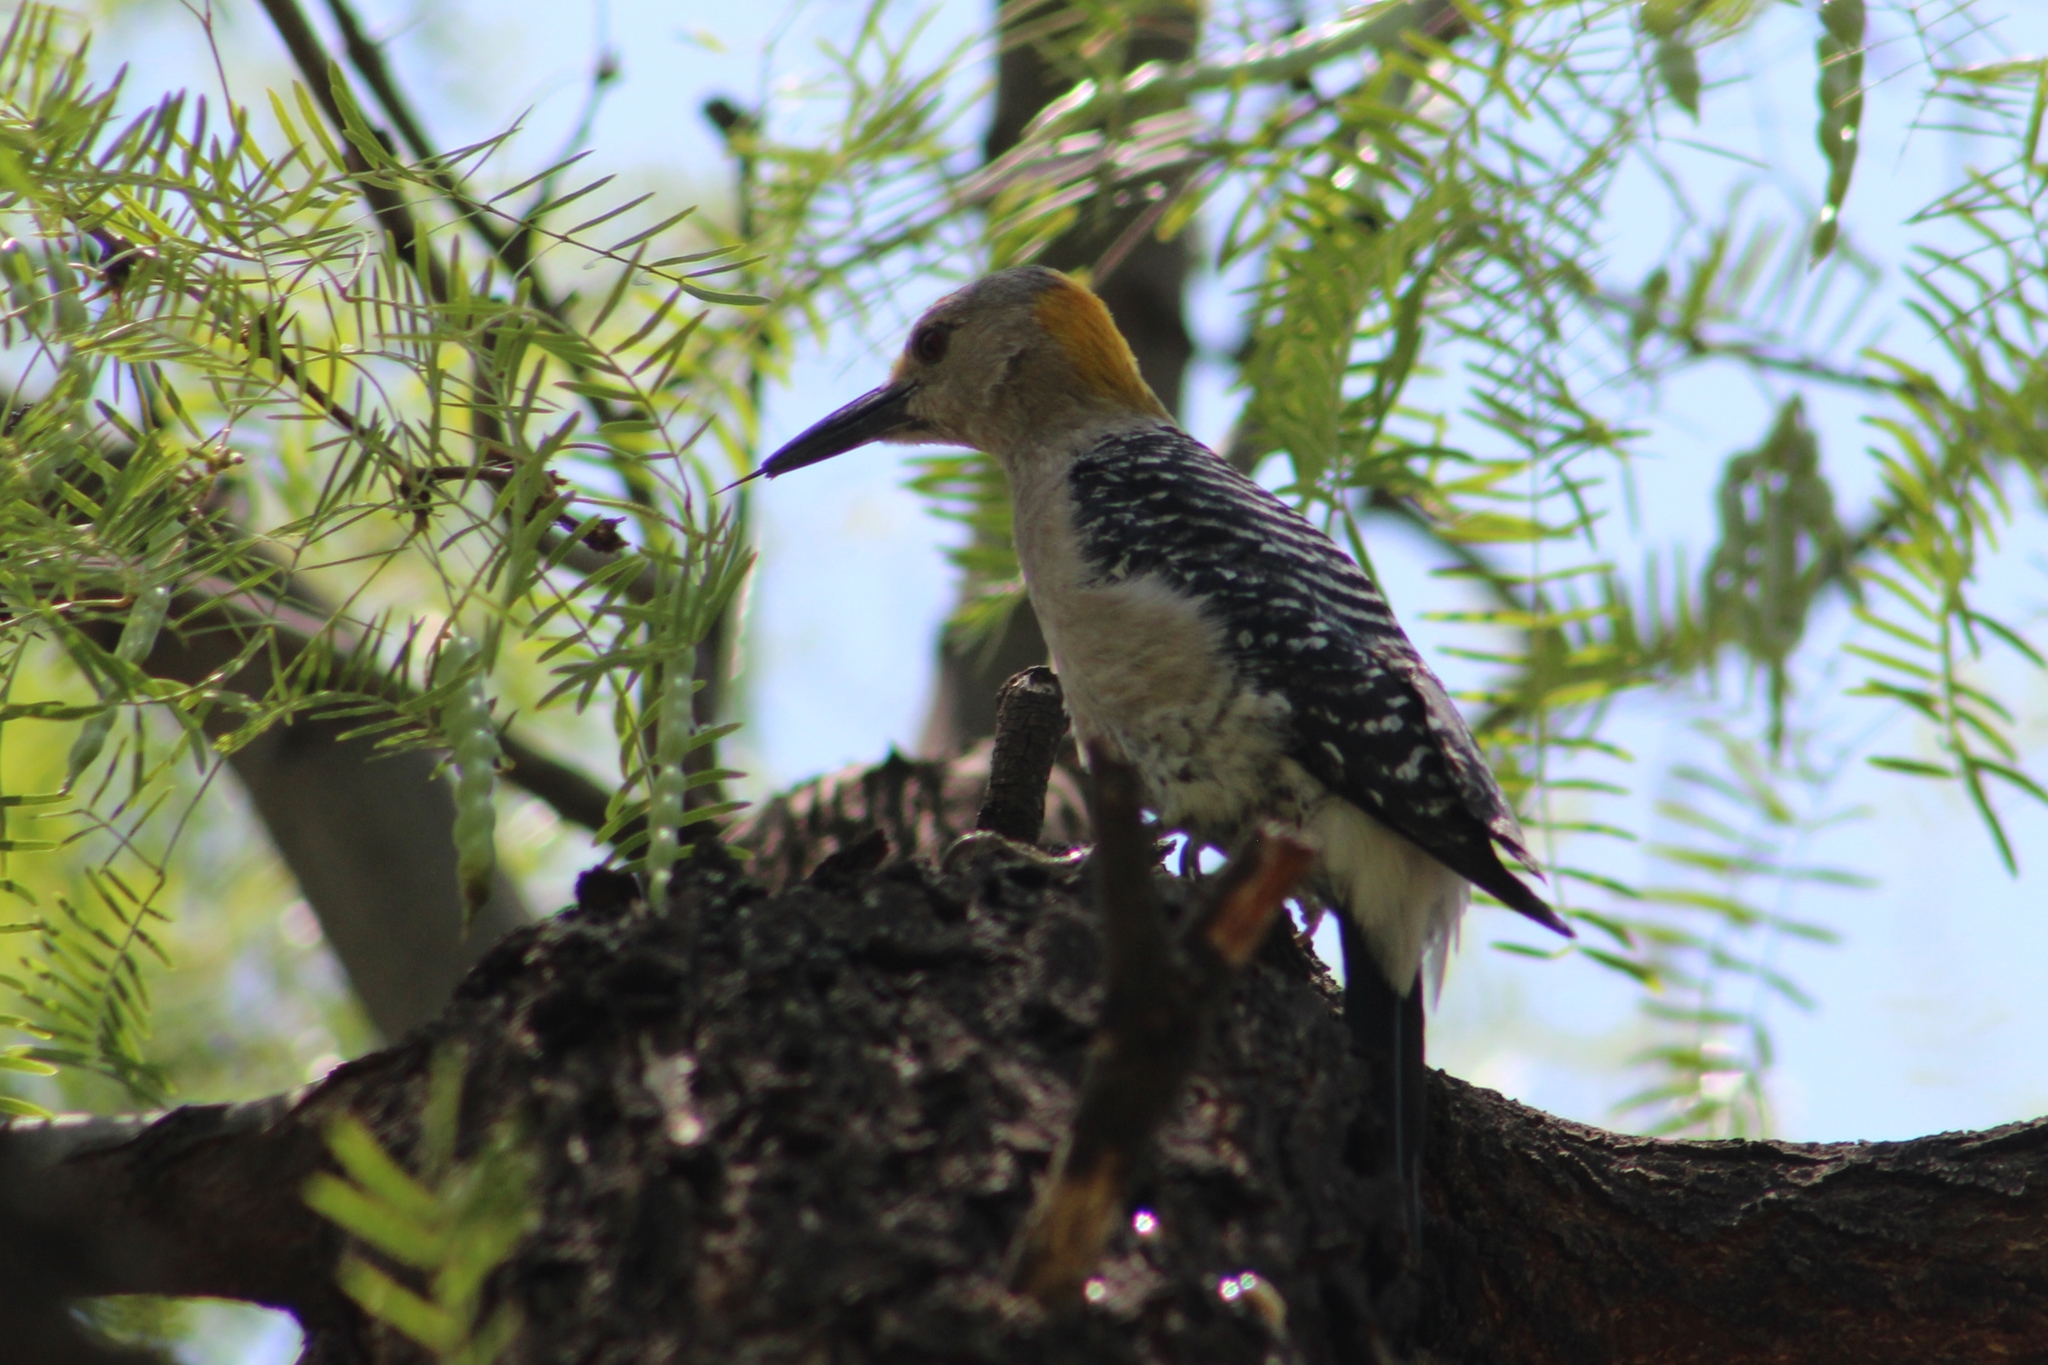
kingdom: Animalia
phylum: Chordata
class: Aves
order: Piciformes
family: Picidae
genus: Melanerpes
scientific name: Melanerpes aurifrons
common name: Golden-fronted woodpecker
